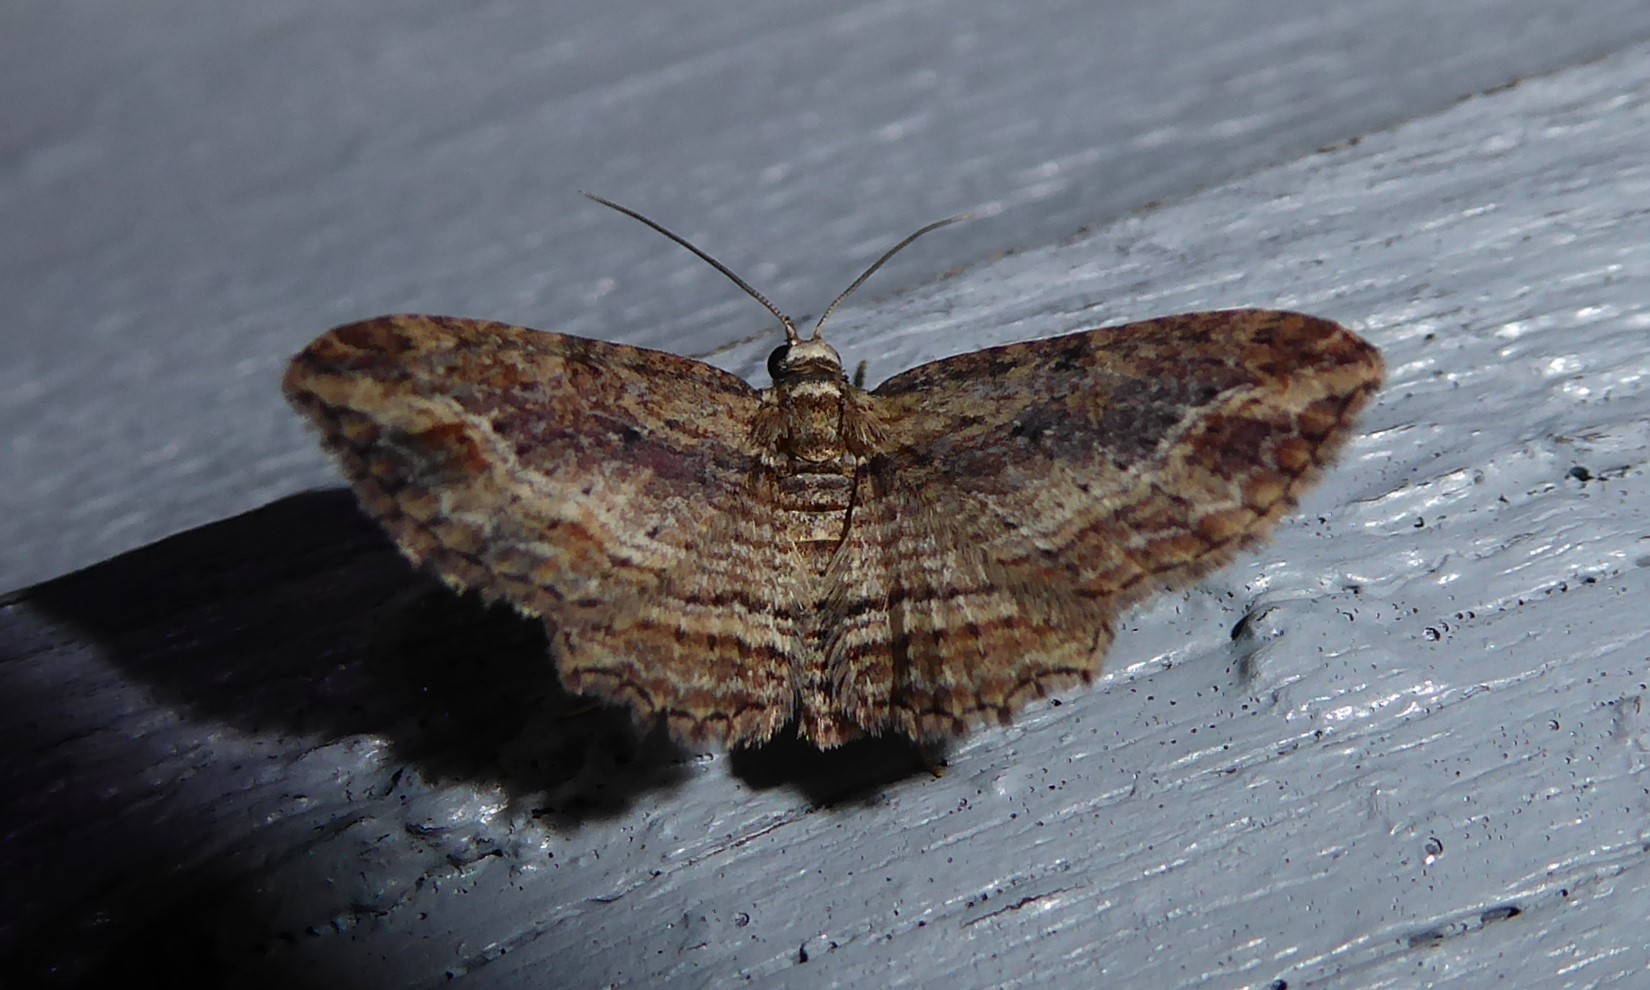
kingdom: Animalia
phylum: Arthropoda
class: Insecta
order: Lepidoptera
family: Geometridae
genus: Chloroclystis
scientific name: Chloroclystis filata
